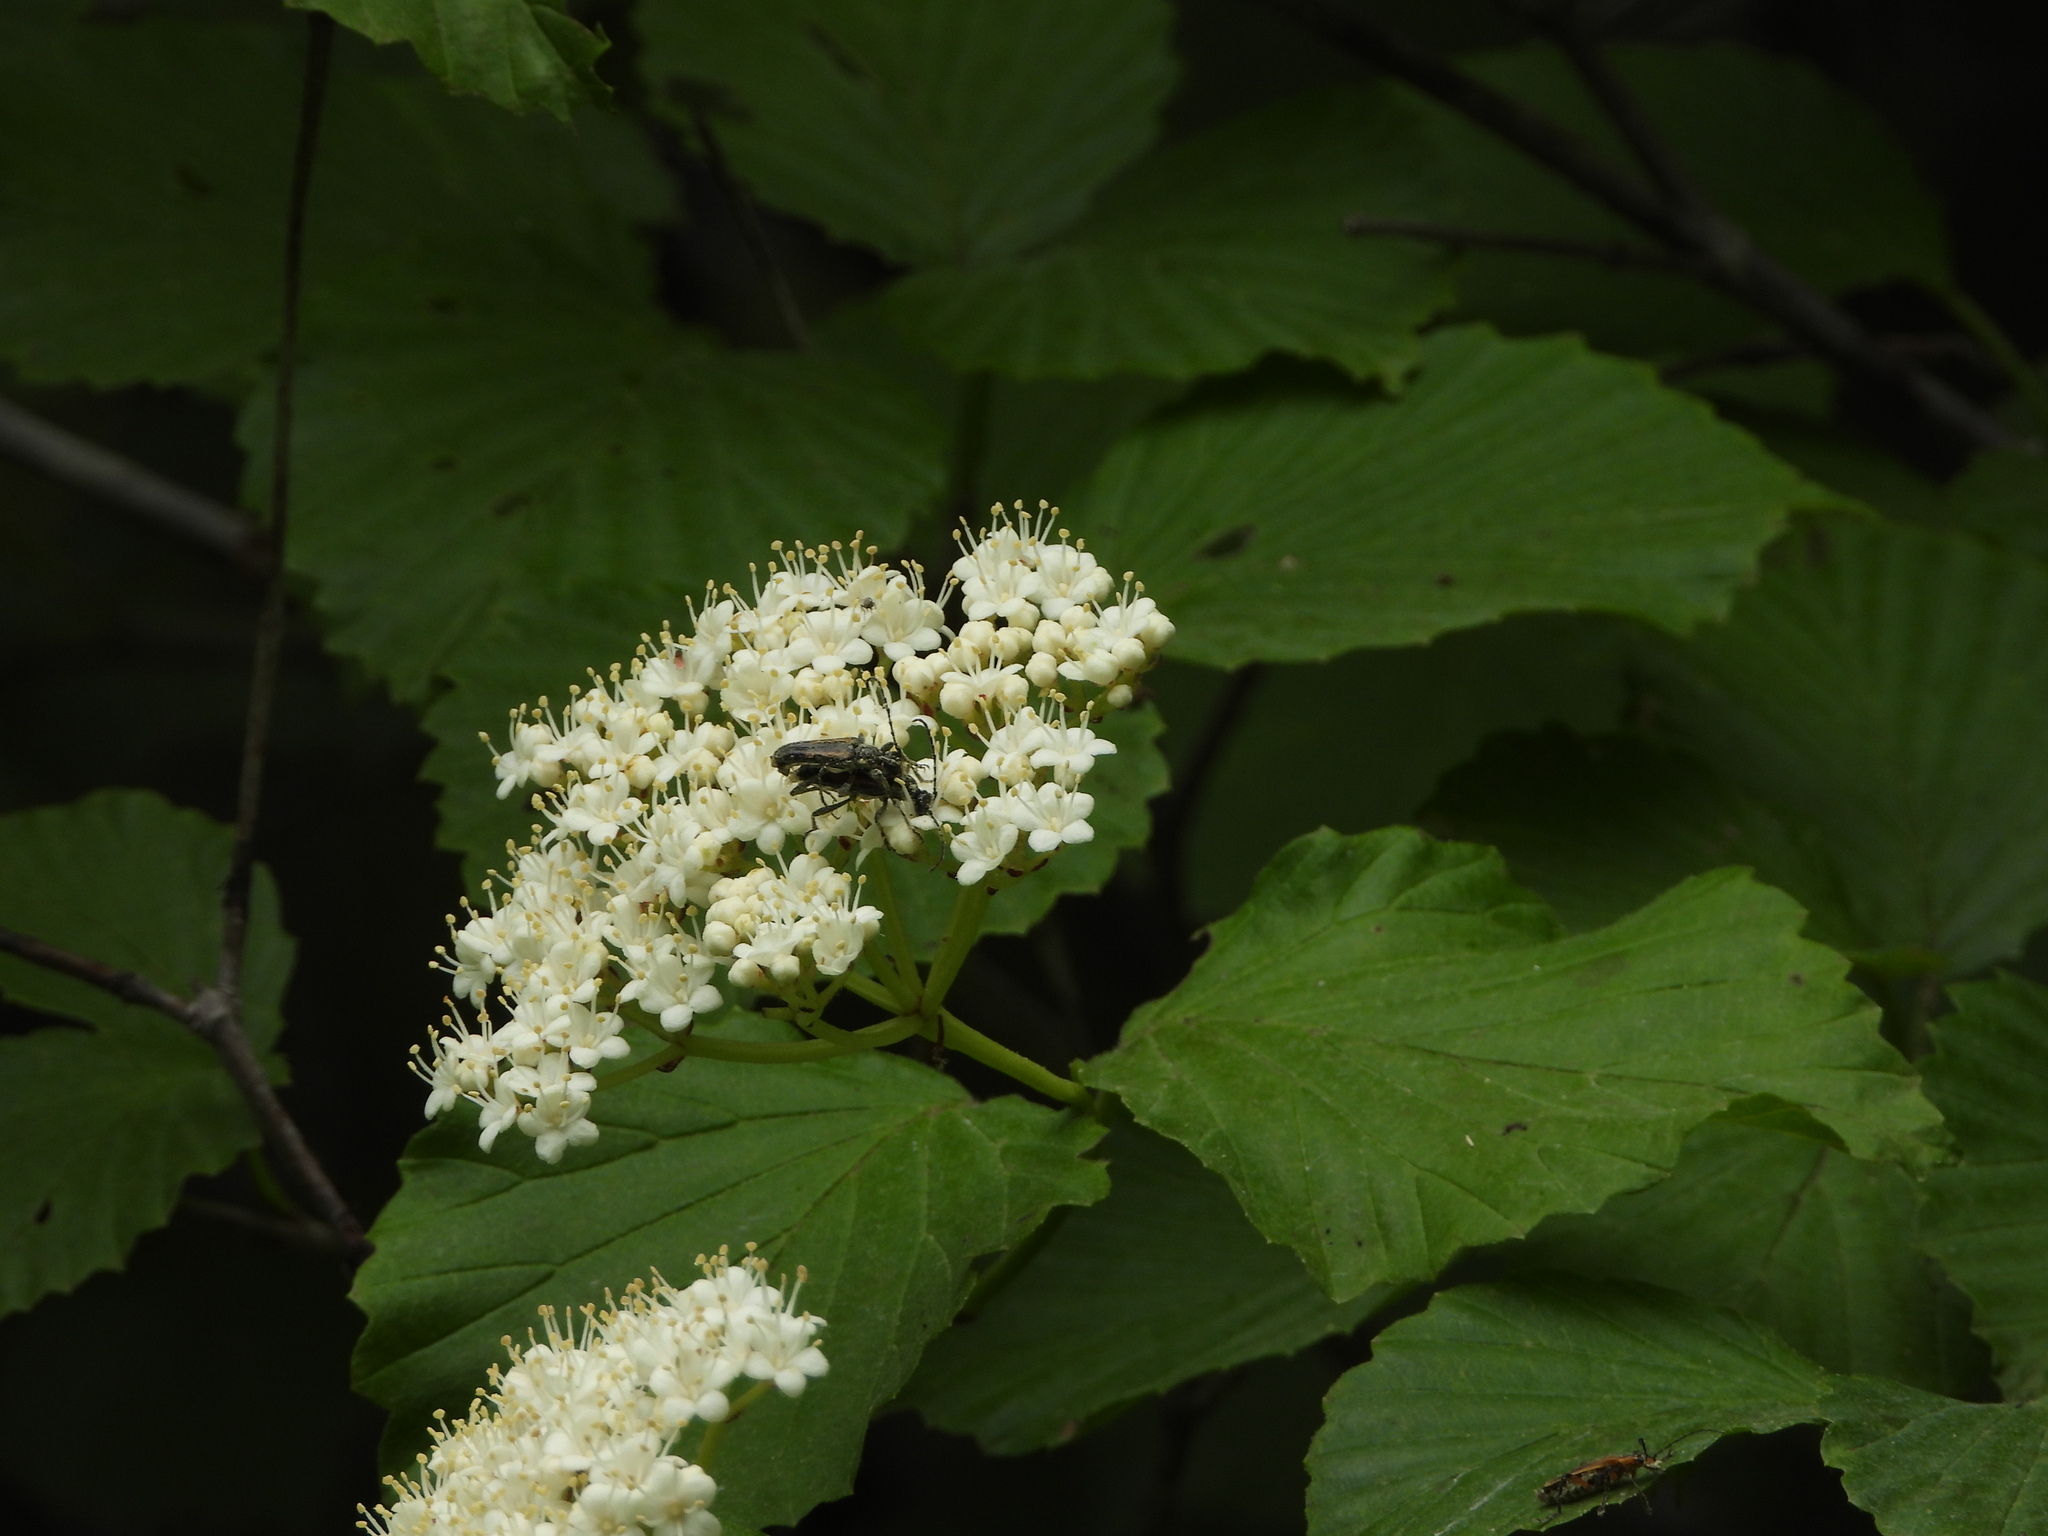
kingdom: Animalia
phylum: Arthropoda
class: Insecta
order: Coleoptera
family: Cerambycidae
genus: Strangalepta
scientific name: Strangalepta abbreviata
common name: Strangalepta flower longhorn beetle
